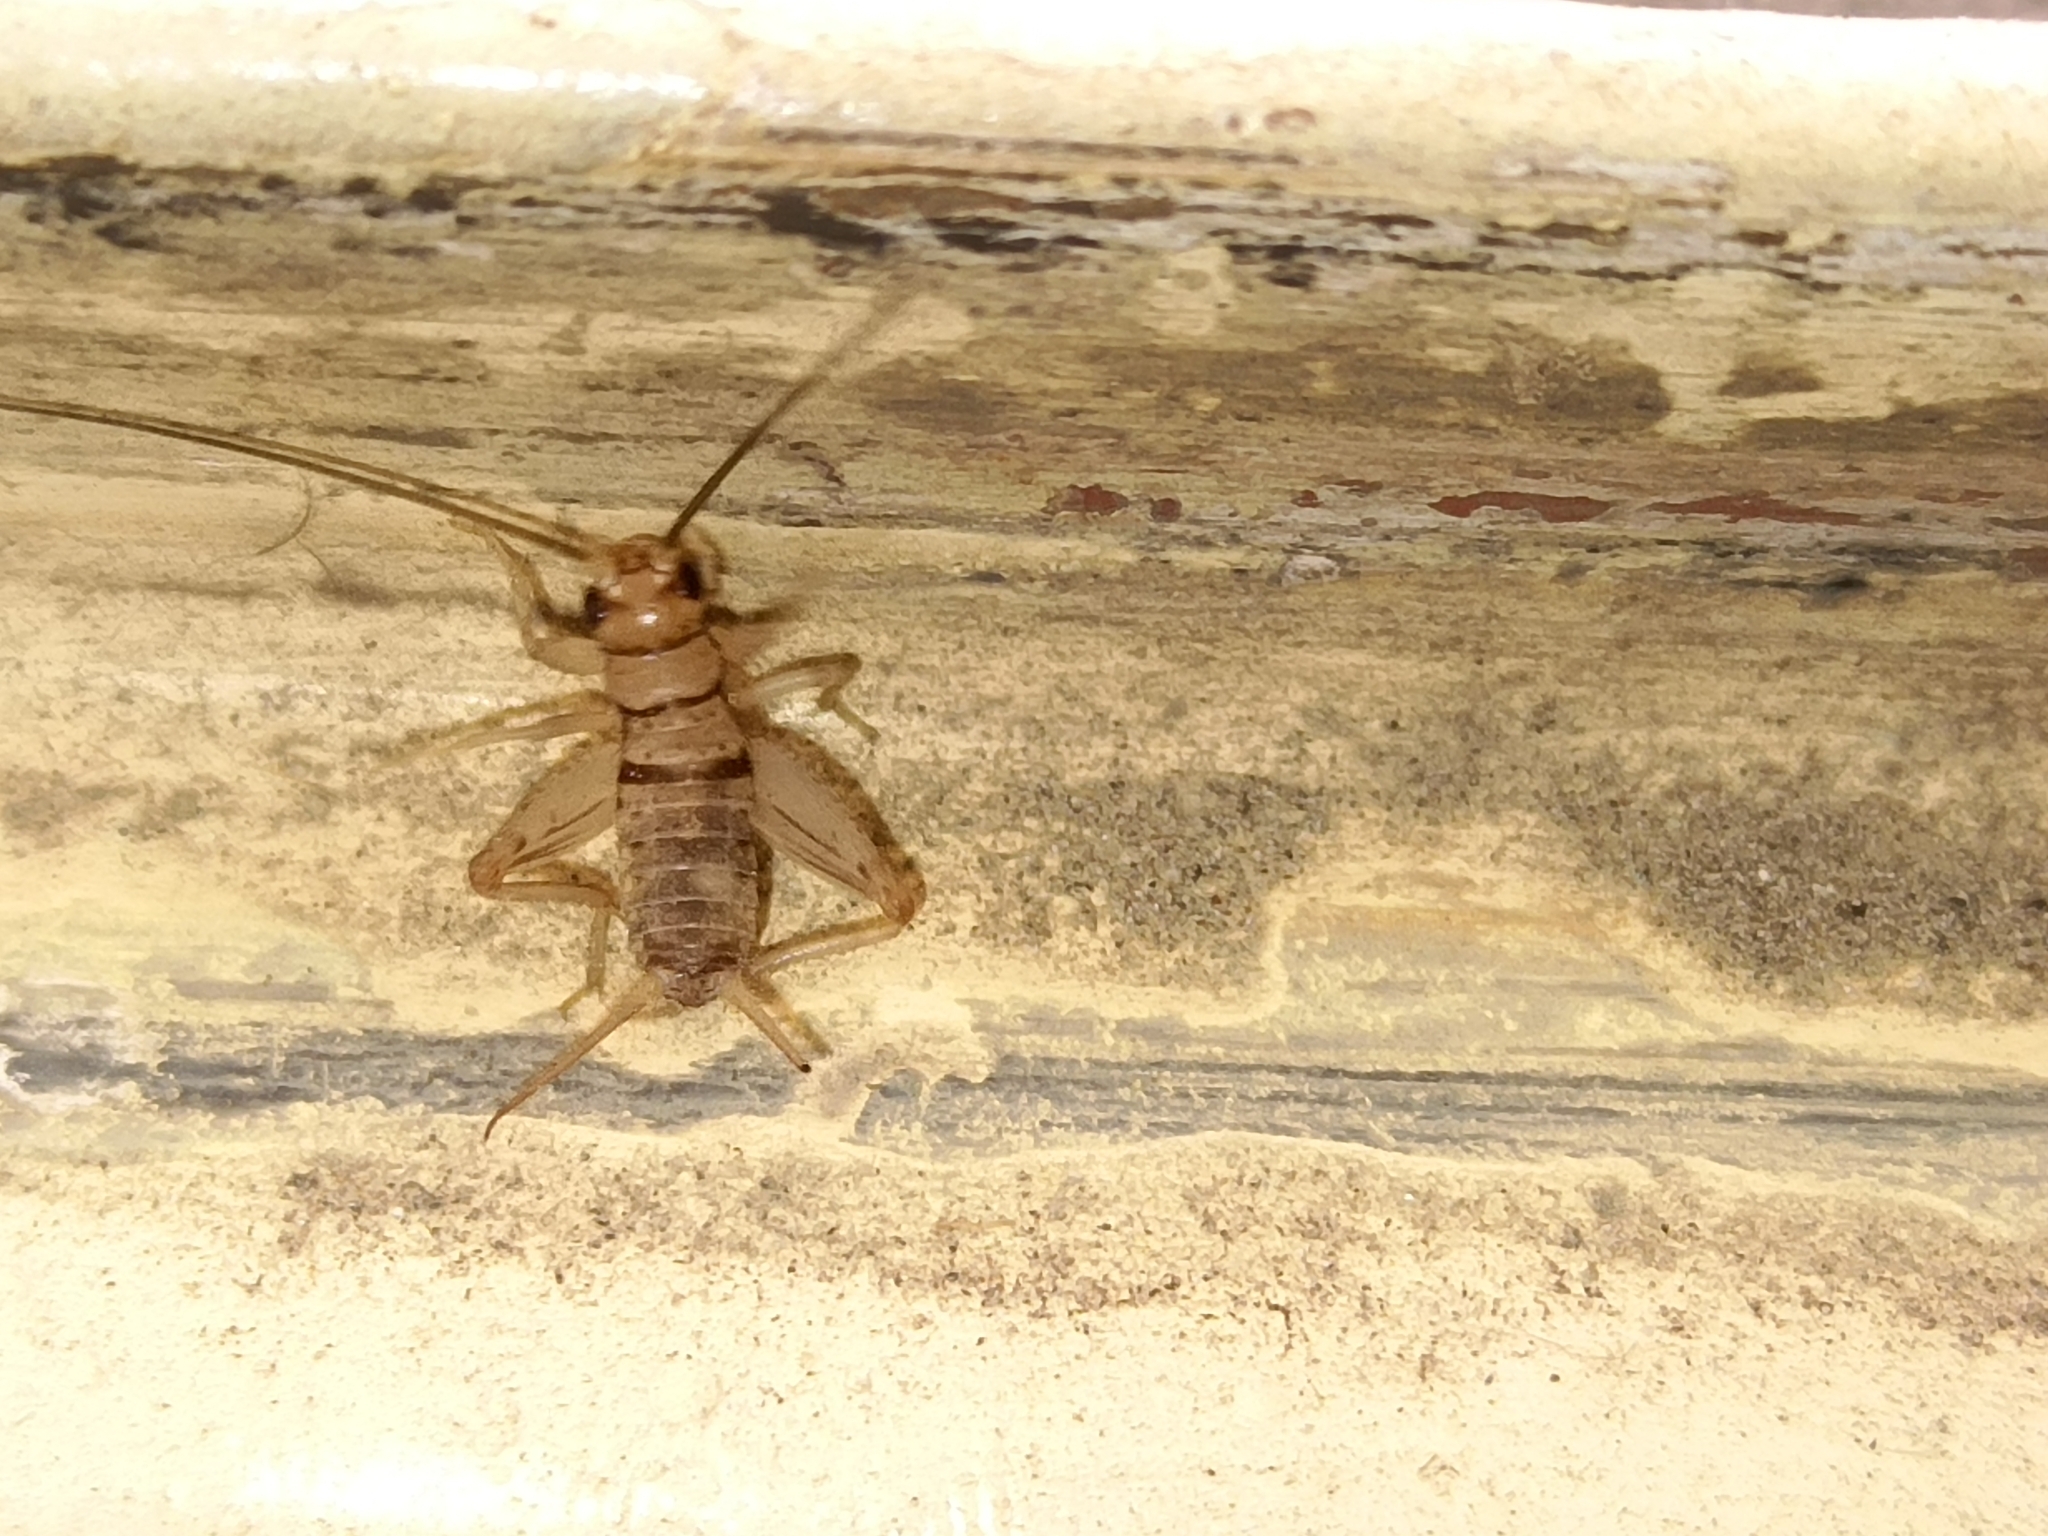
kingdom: Animalia
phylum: Arthropoda
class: Insecta
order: Orthoptera
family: Gryllidae
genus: Gryllodes
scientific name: Gryllodes sigillatus
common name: Tropical house cricket
